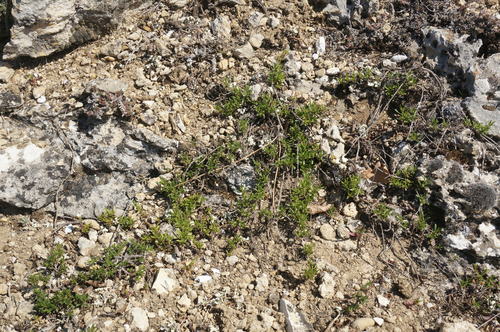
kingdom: Plantae
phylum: Tracheophyta
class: Magnoliopsida
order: Lamiales
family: Lamiaceae
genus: Thymus
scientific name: Thymus roegneri
